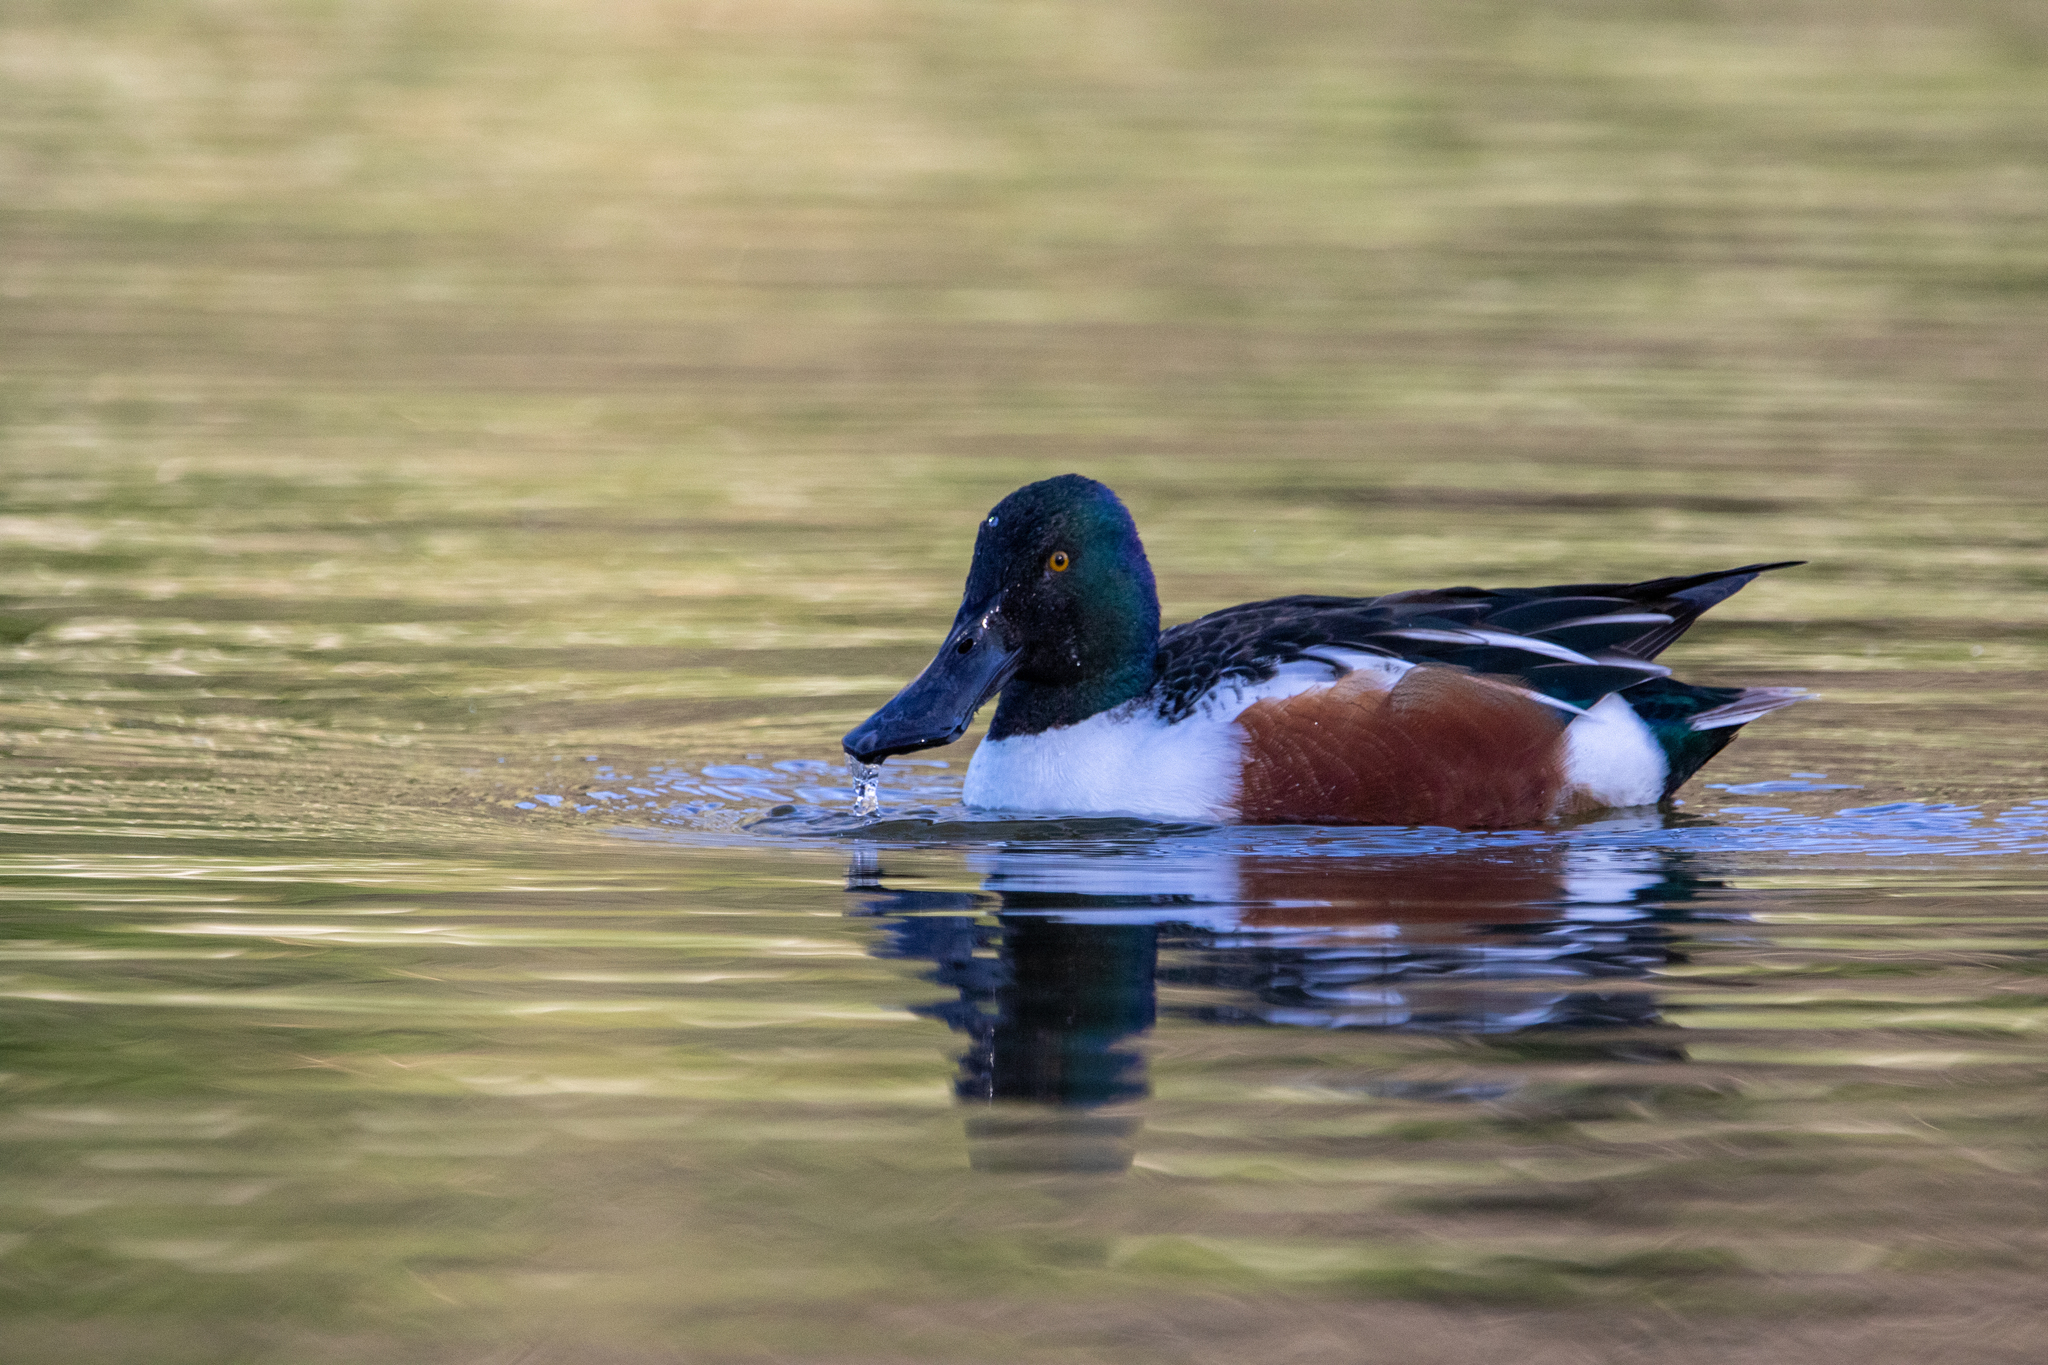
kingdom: Animalia
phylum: Chordata
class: Aves
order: Anseriformes
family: Anatidae
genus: Spatula
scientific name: Spatula clypeata
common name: Northern shoveler
